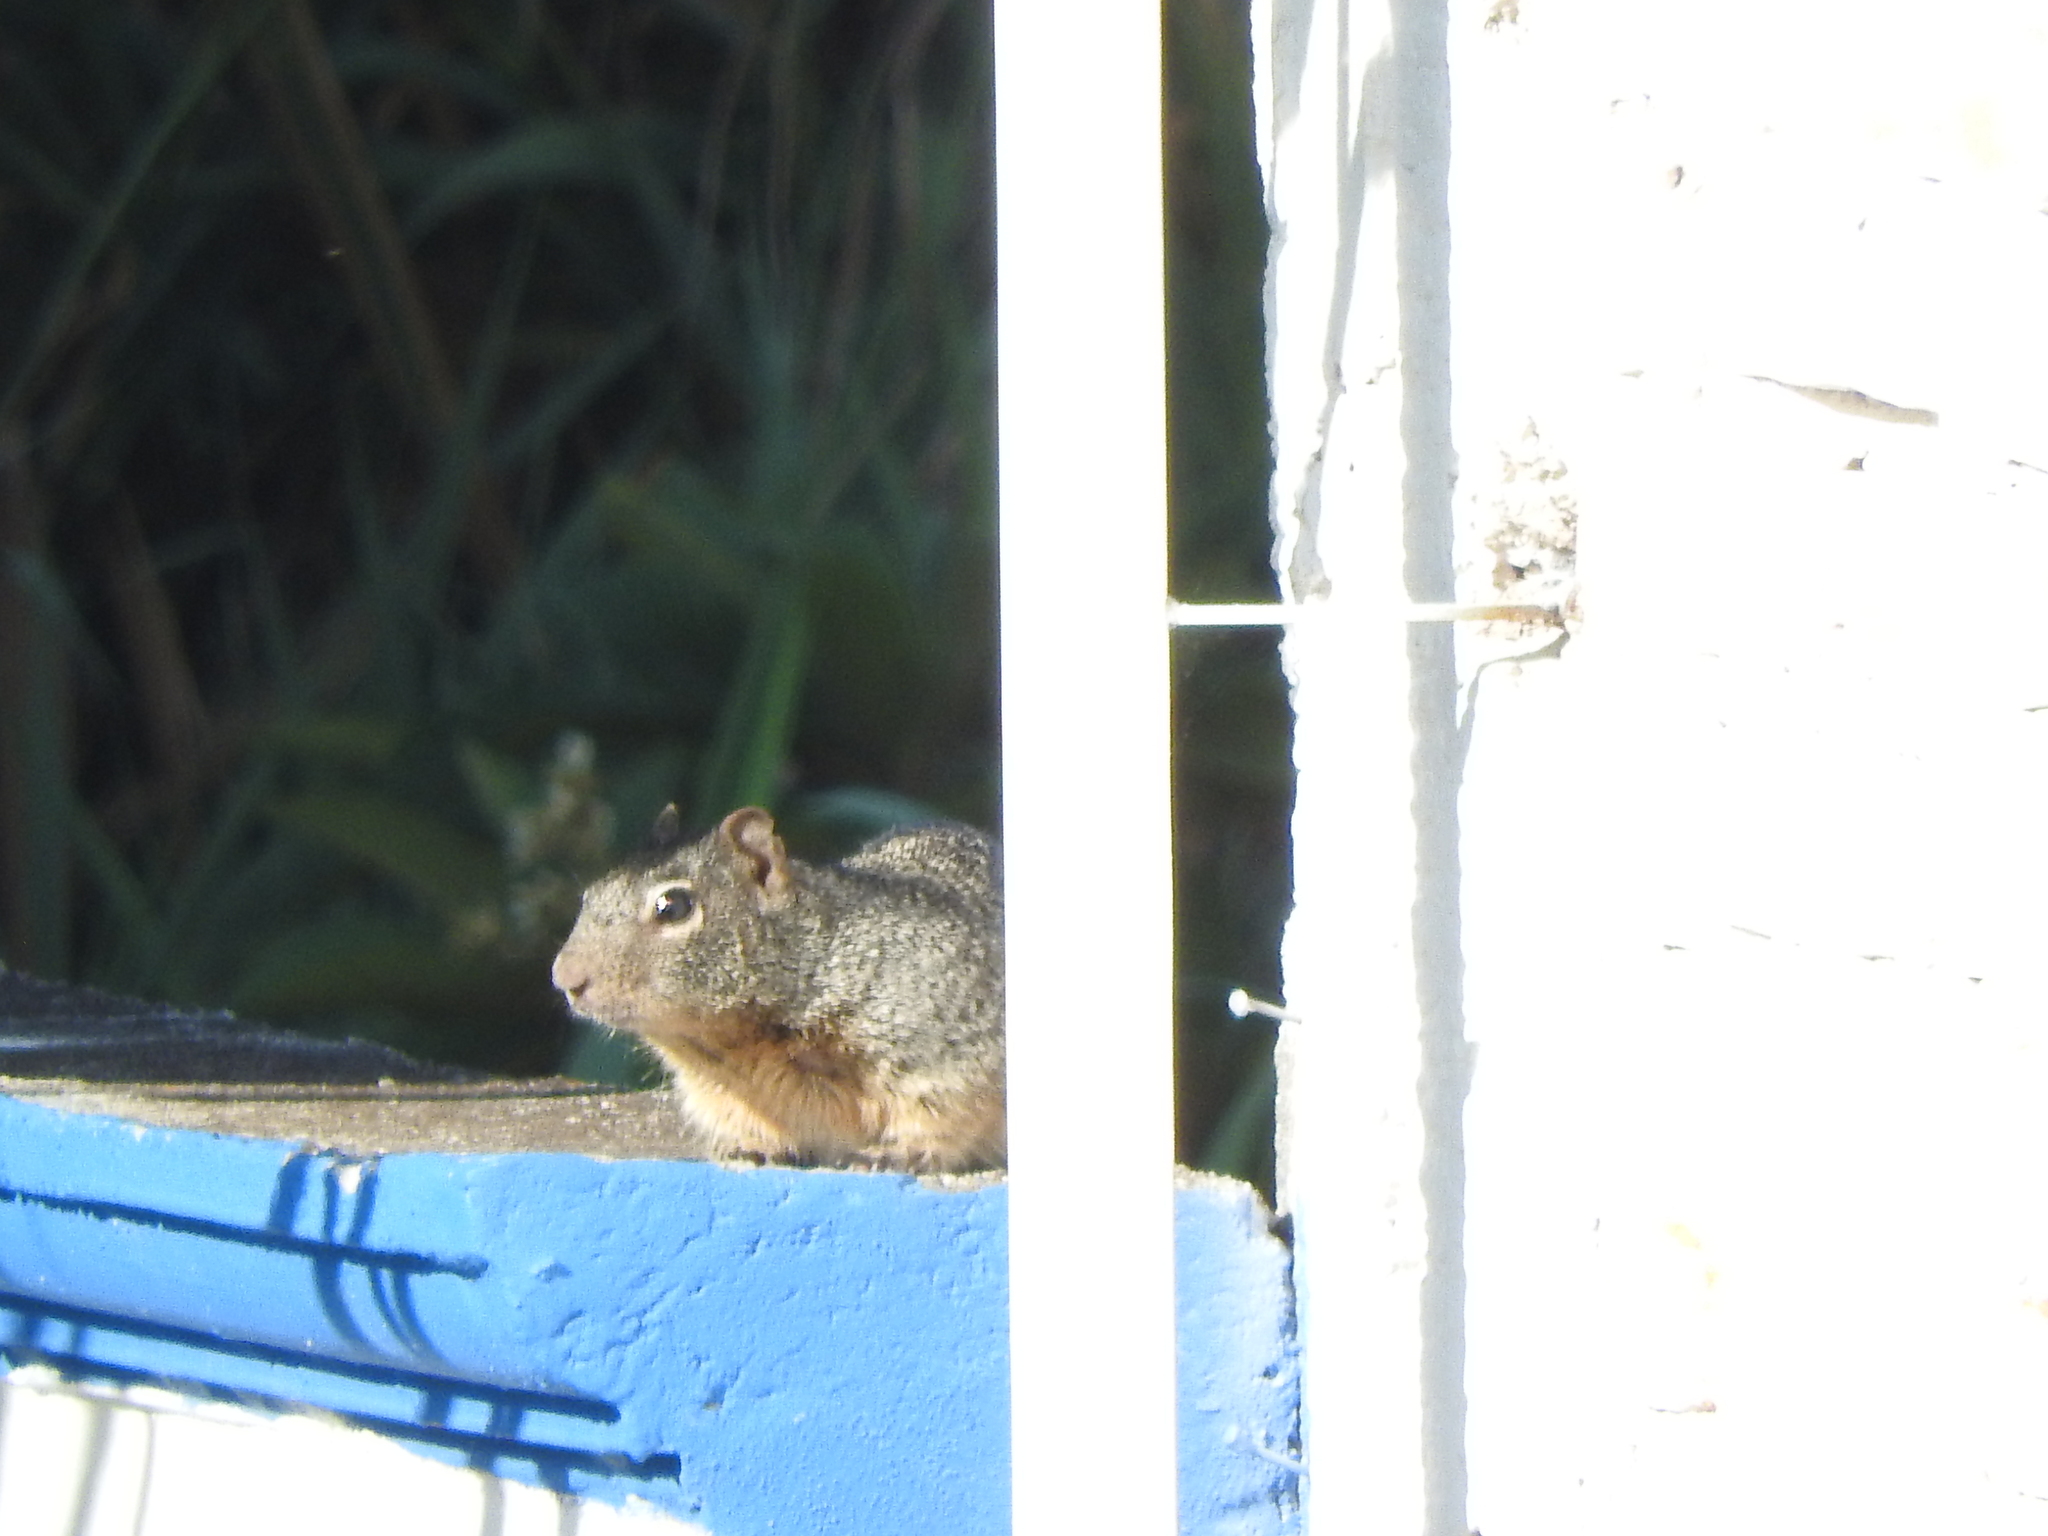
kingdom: Animalia
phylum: Chordata
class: Mammalia
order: Rodentia
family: Sciuridae
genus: Otospermophilus
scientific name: Otospermophilus variegatus
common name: Rock squirrel
